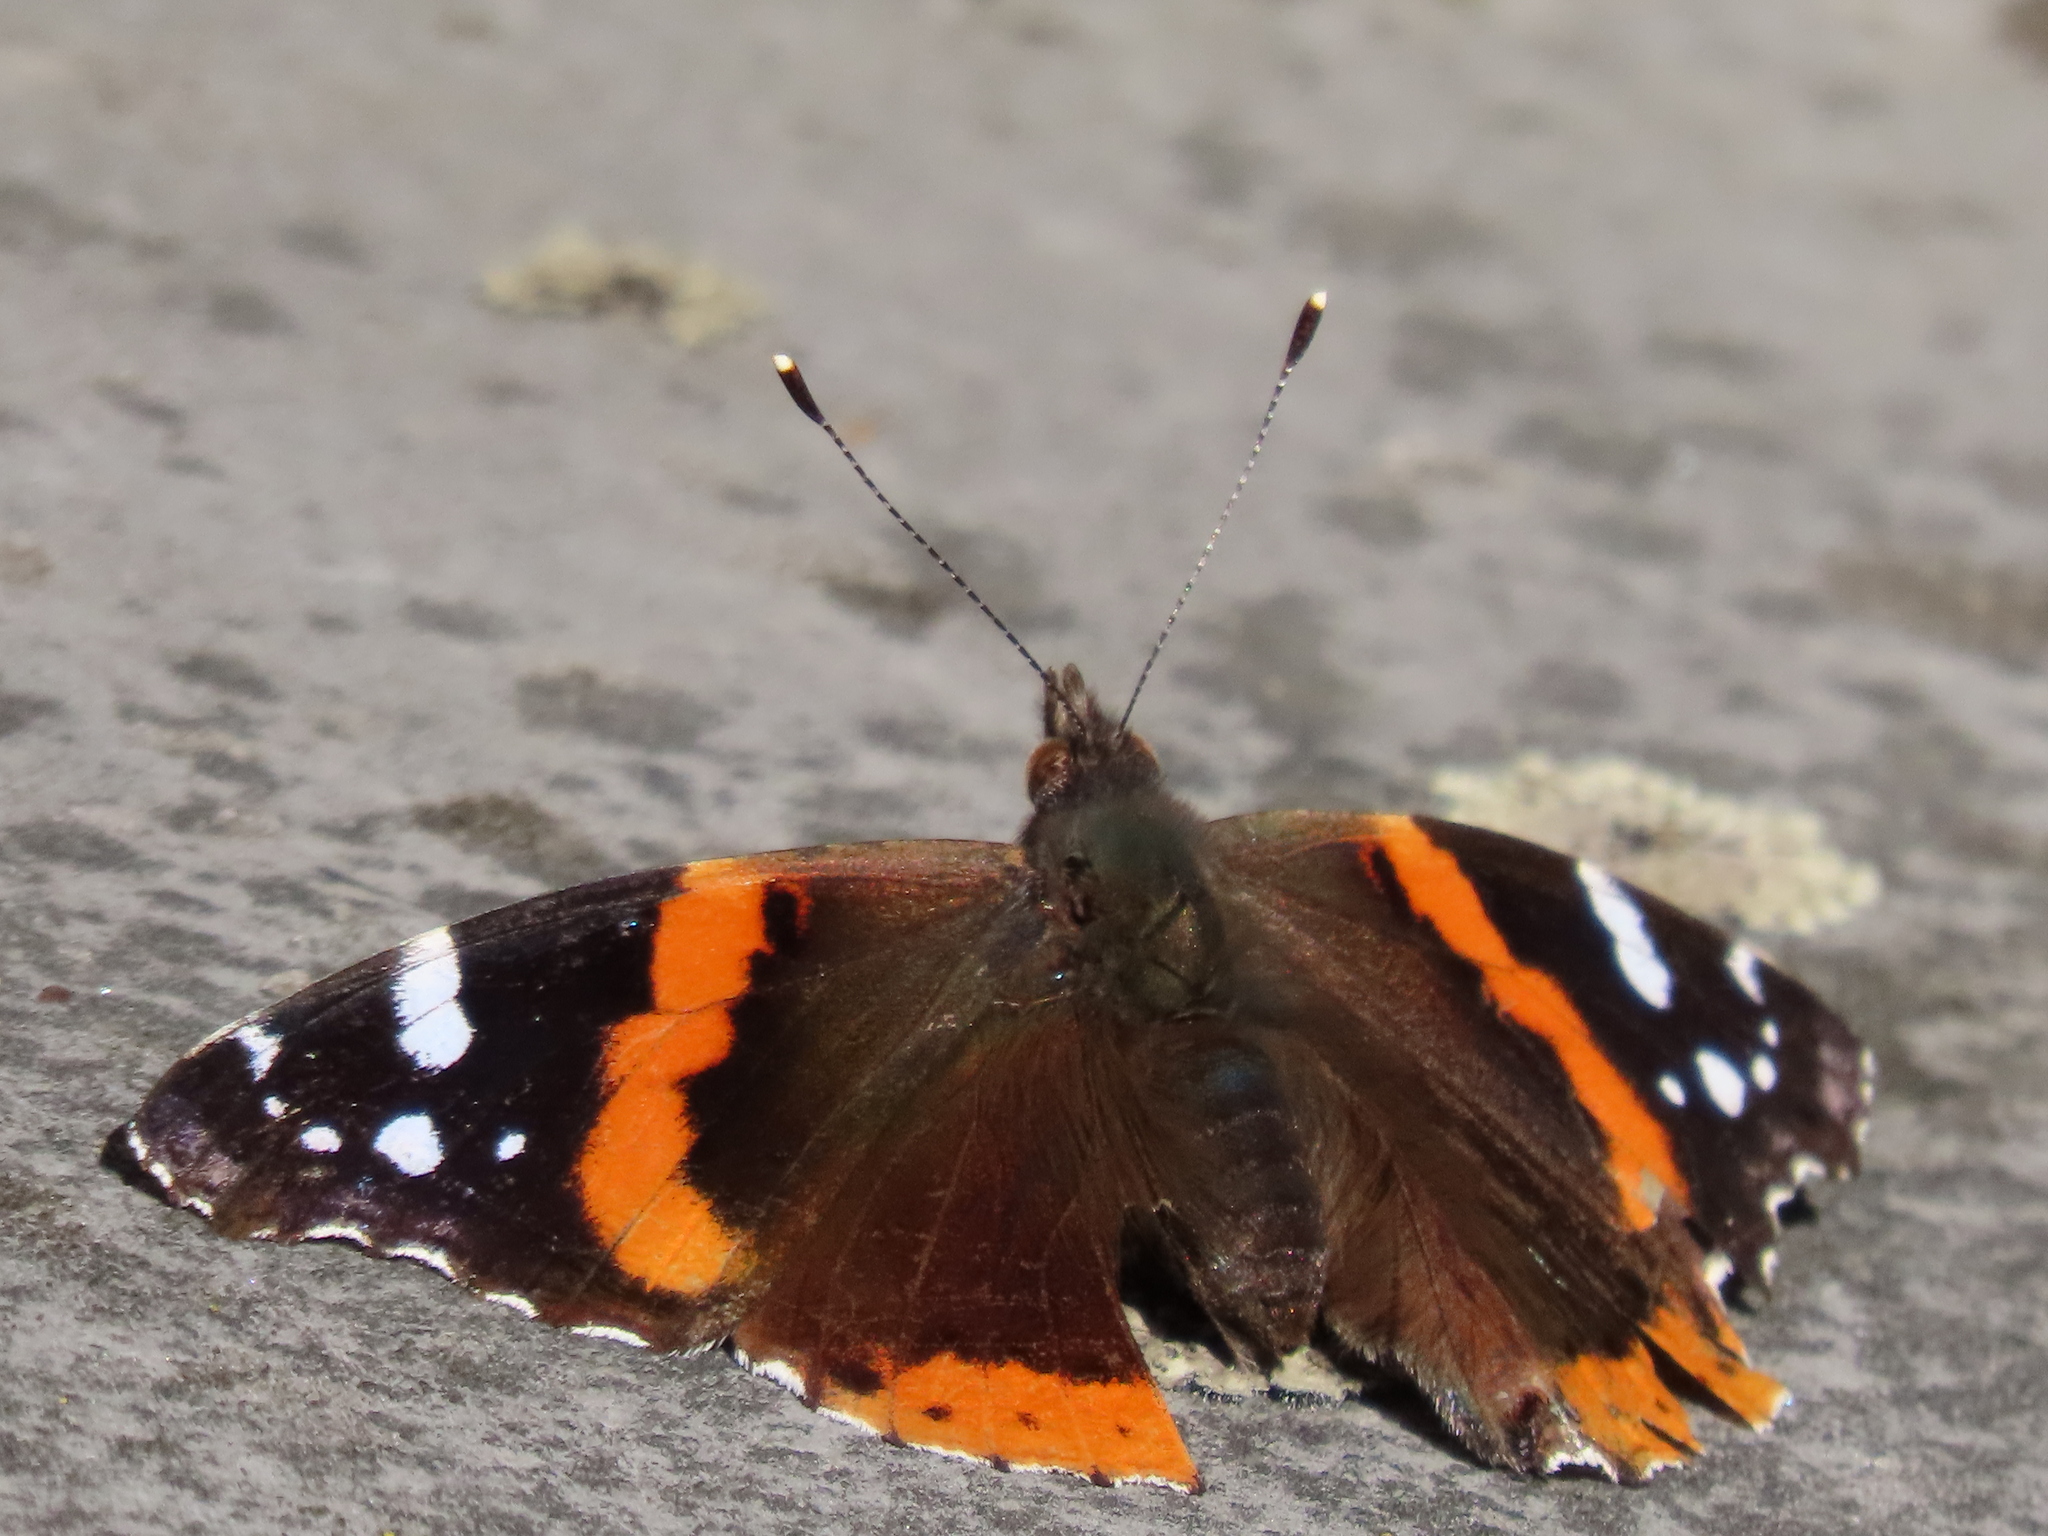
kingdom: Animalia
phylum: Arthropoda
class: Insecta
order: Lepidoptera
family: Nymphalidae
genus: Vanessa
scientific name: Vanessa atalanta
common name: Red admiral
